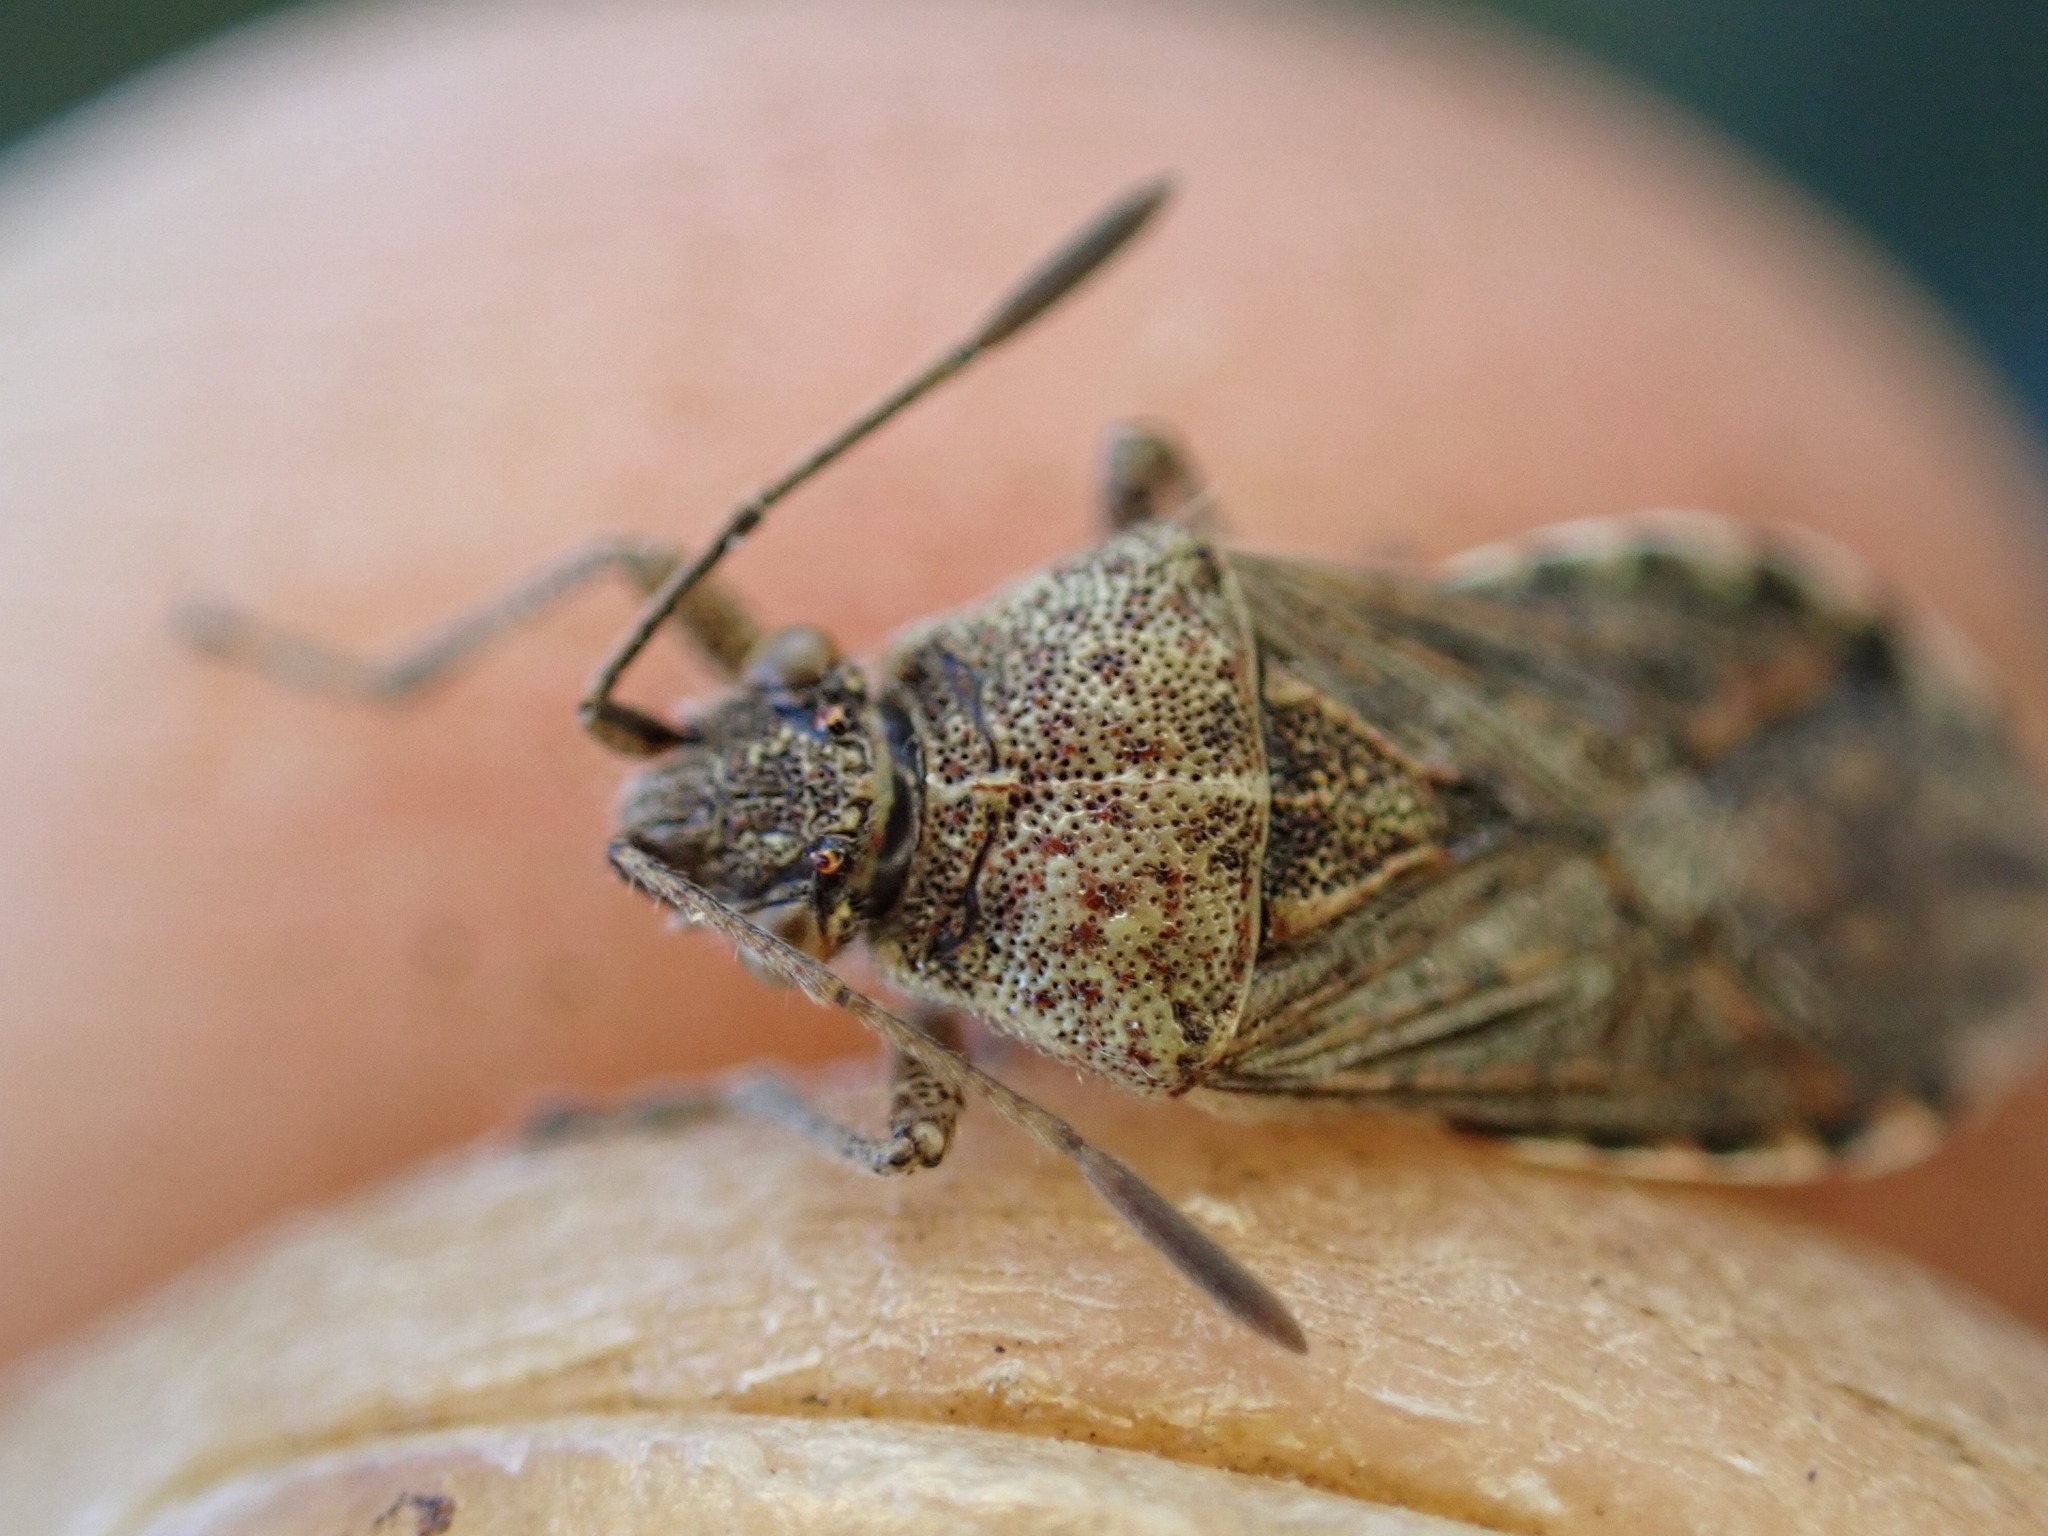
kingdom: Animalia
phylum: Arthropoda
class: Insecta
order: Hemiptera
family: Rhopalidae
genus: Stictopleurus
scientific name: Stictopleurus punctatonervosus
